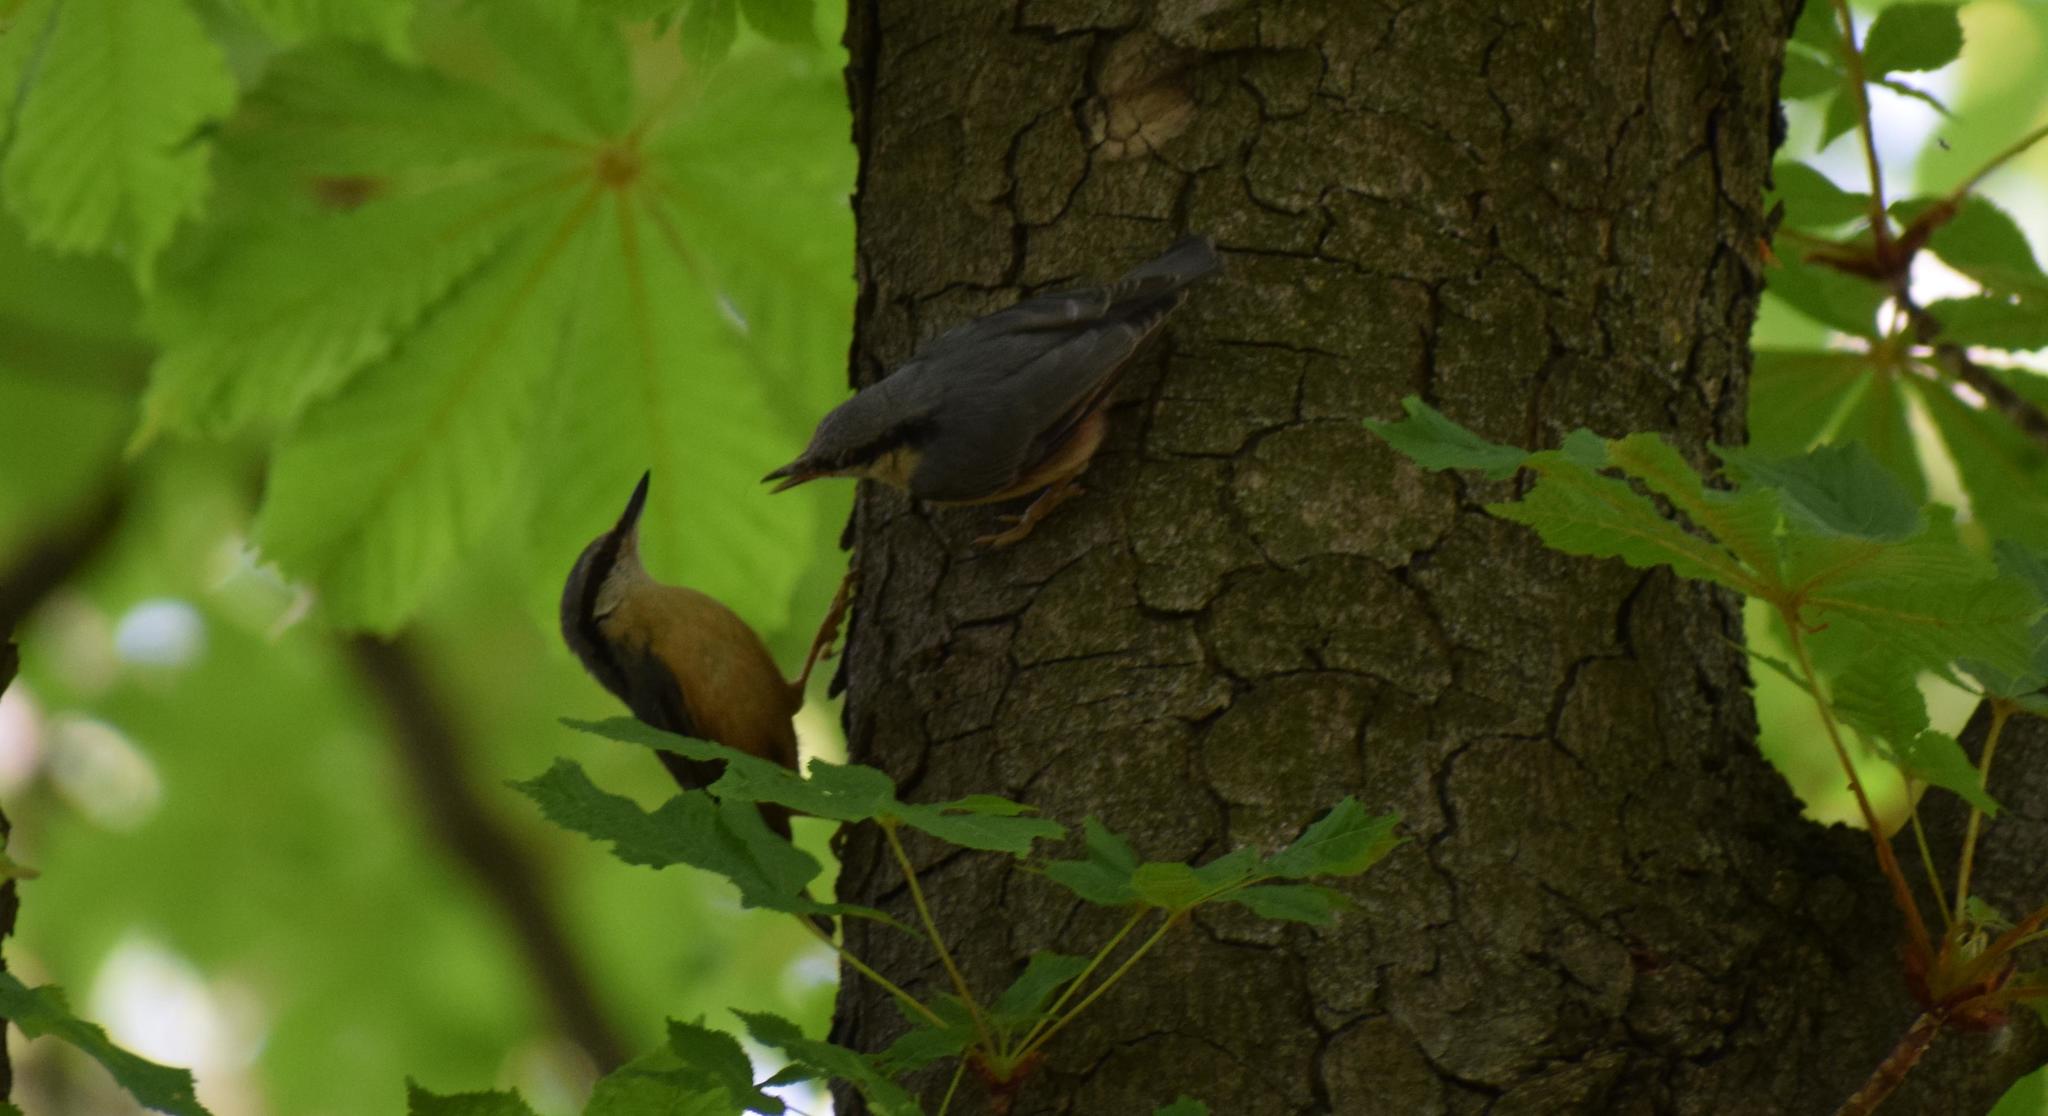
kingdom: Animalia
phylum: Chordata
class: Aves
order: Passeriformes
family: Sittidae
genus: Sitta
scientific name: Sitta europaea
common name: Eurasian nuthatch
